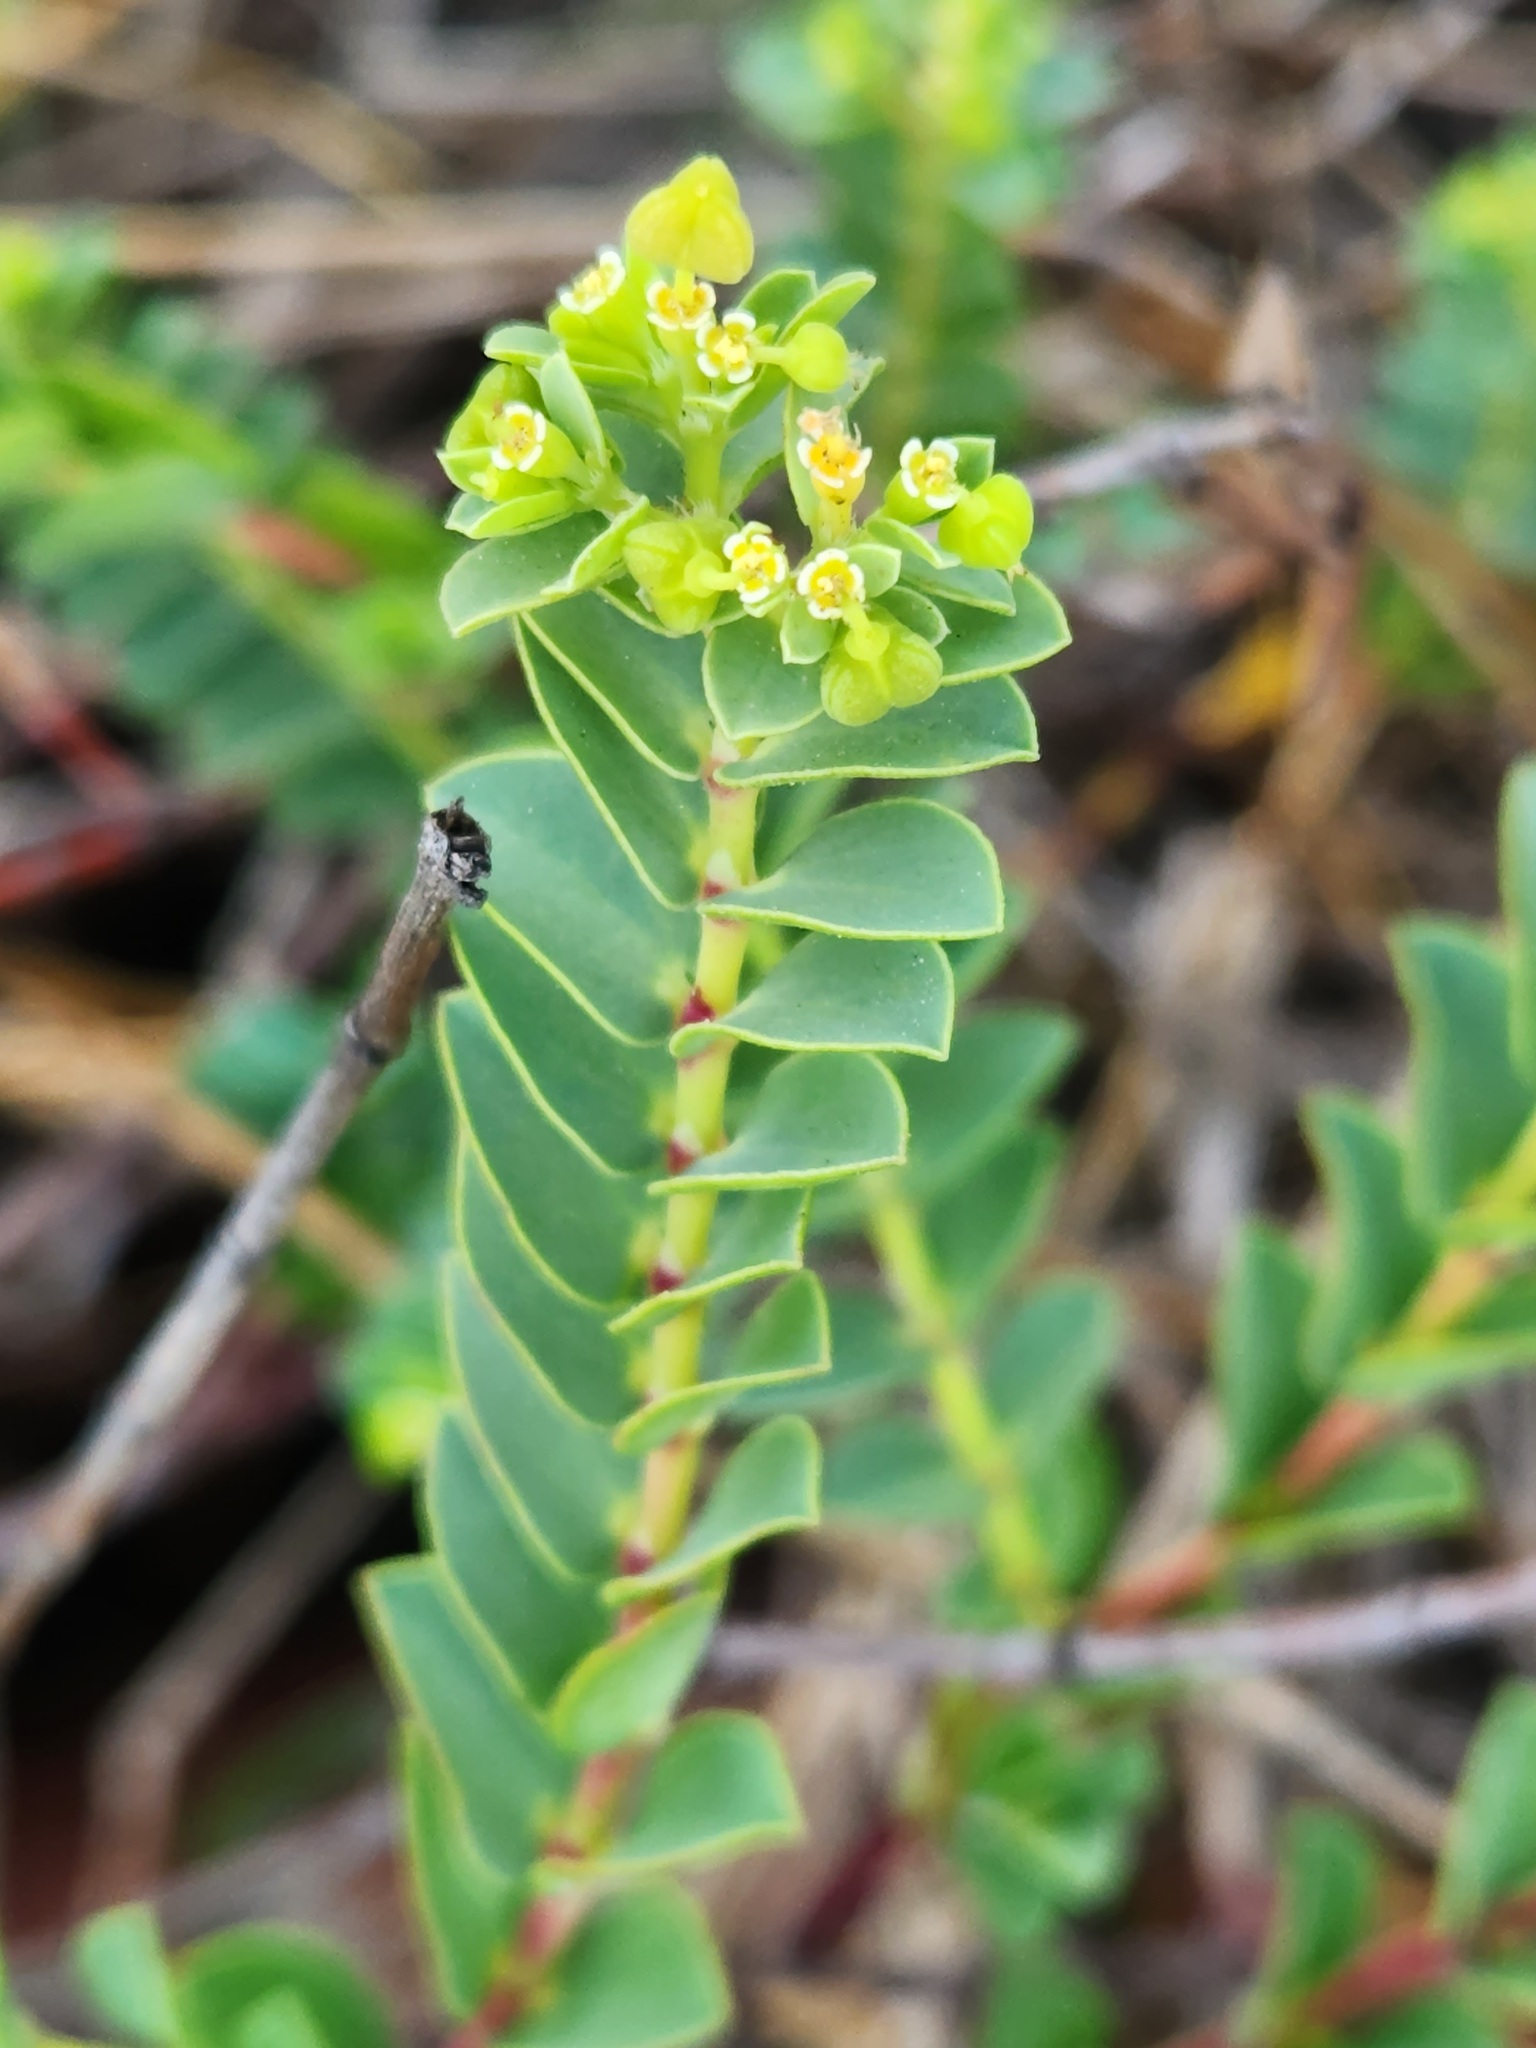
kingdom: Plantae
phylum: Tracheophyta
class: Magnoliopsida
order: Malpighiales
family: Euphorbiaceae
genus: Euphorbia
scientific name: Euphorbia mesembryanthemifolia
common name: Coastal beach sandmat
